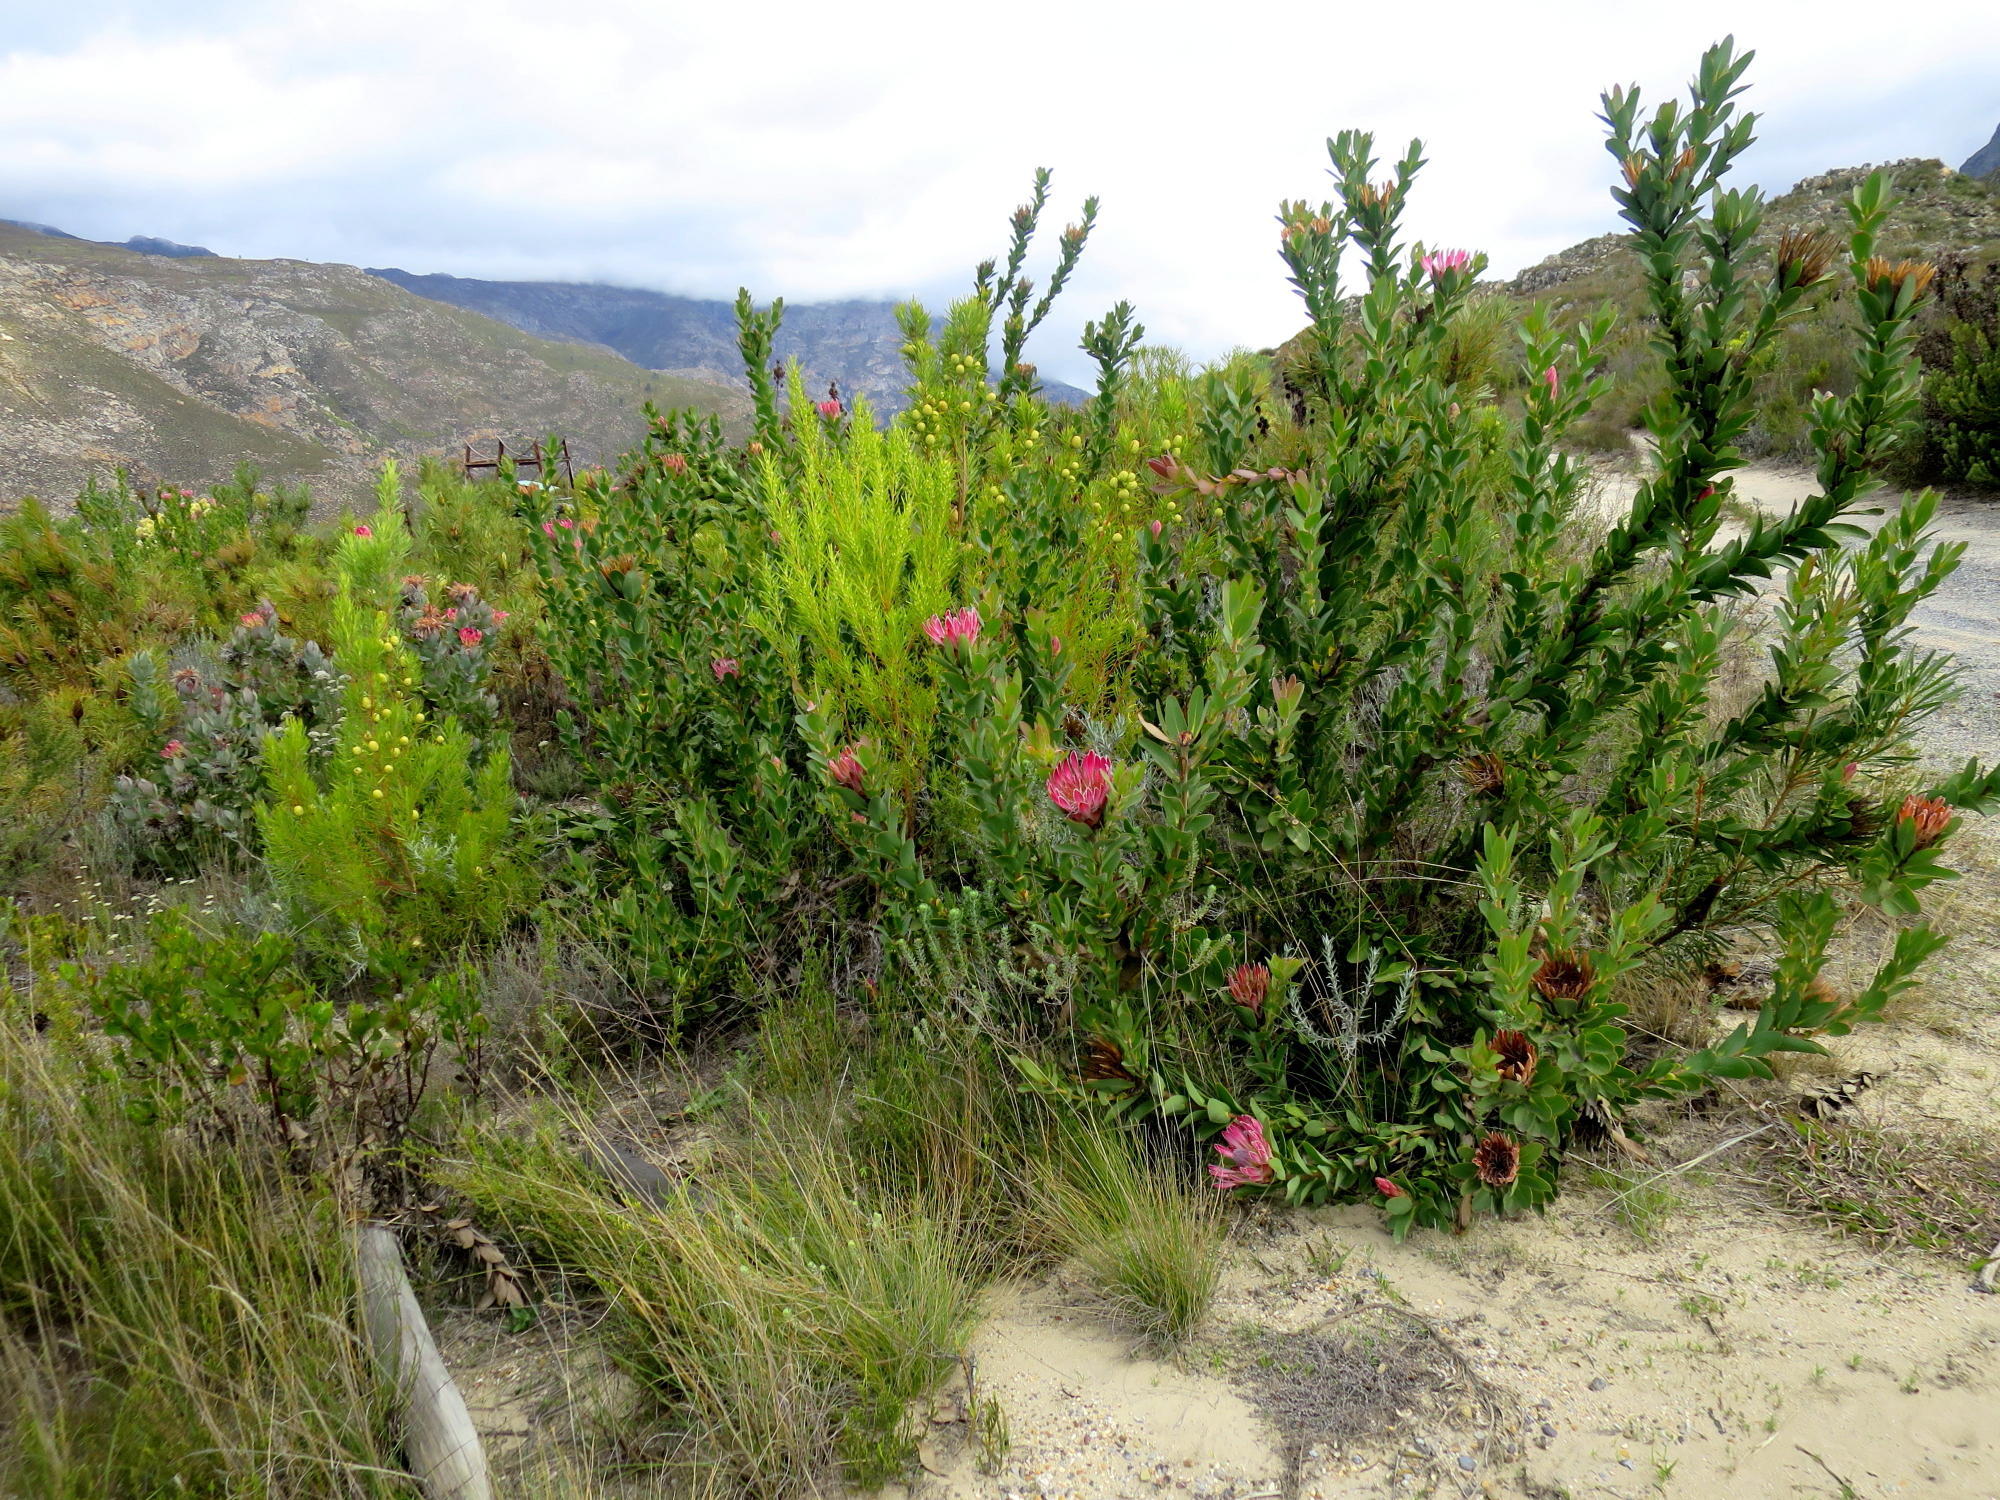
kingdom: Plantae
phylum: Tracheophyta
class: Magnoliopsida
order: Proteales
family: Proteaceae
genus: Protea
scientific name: Protea compacta
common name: Bot river protea
